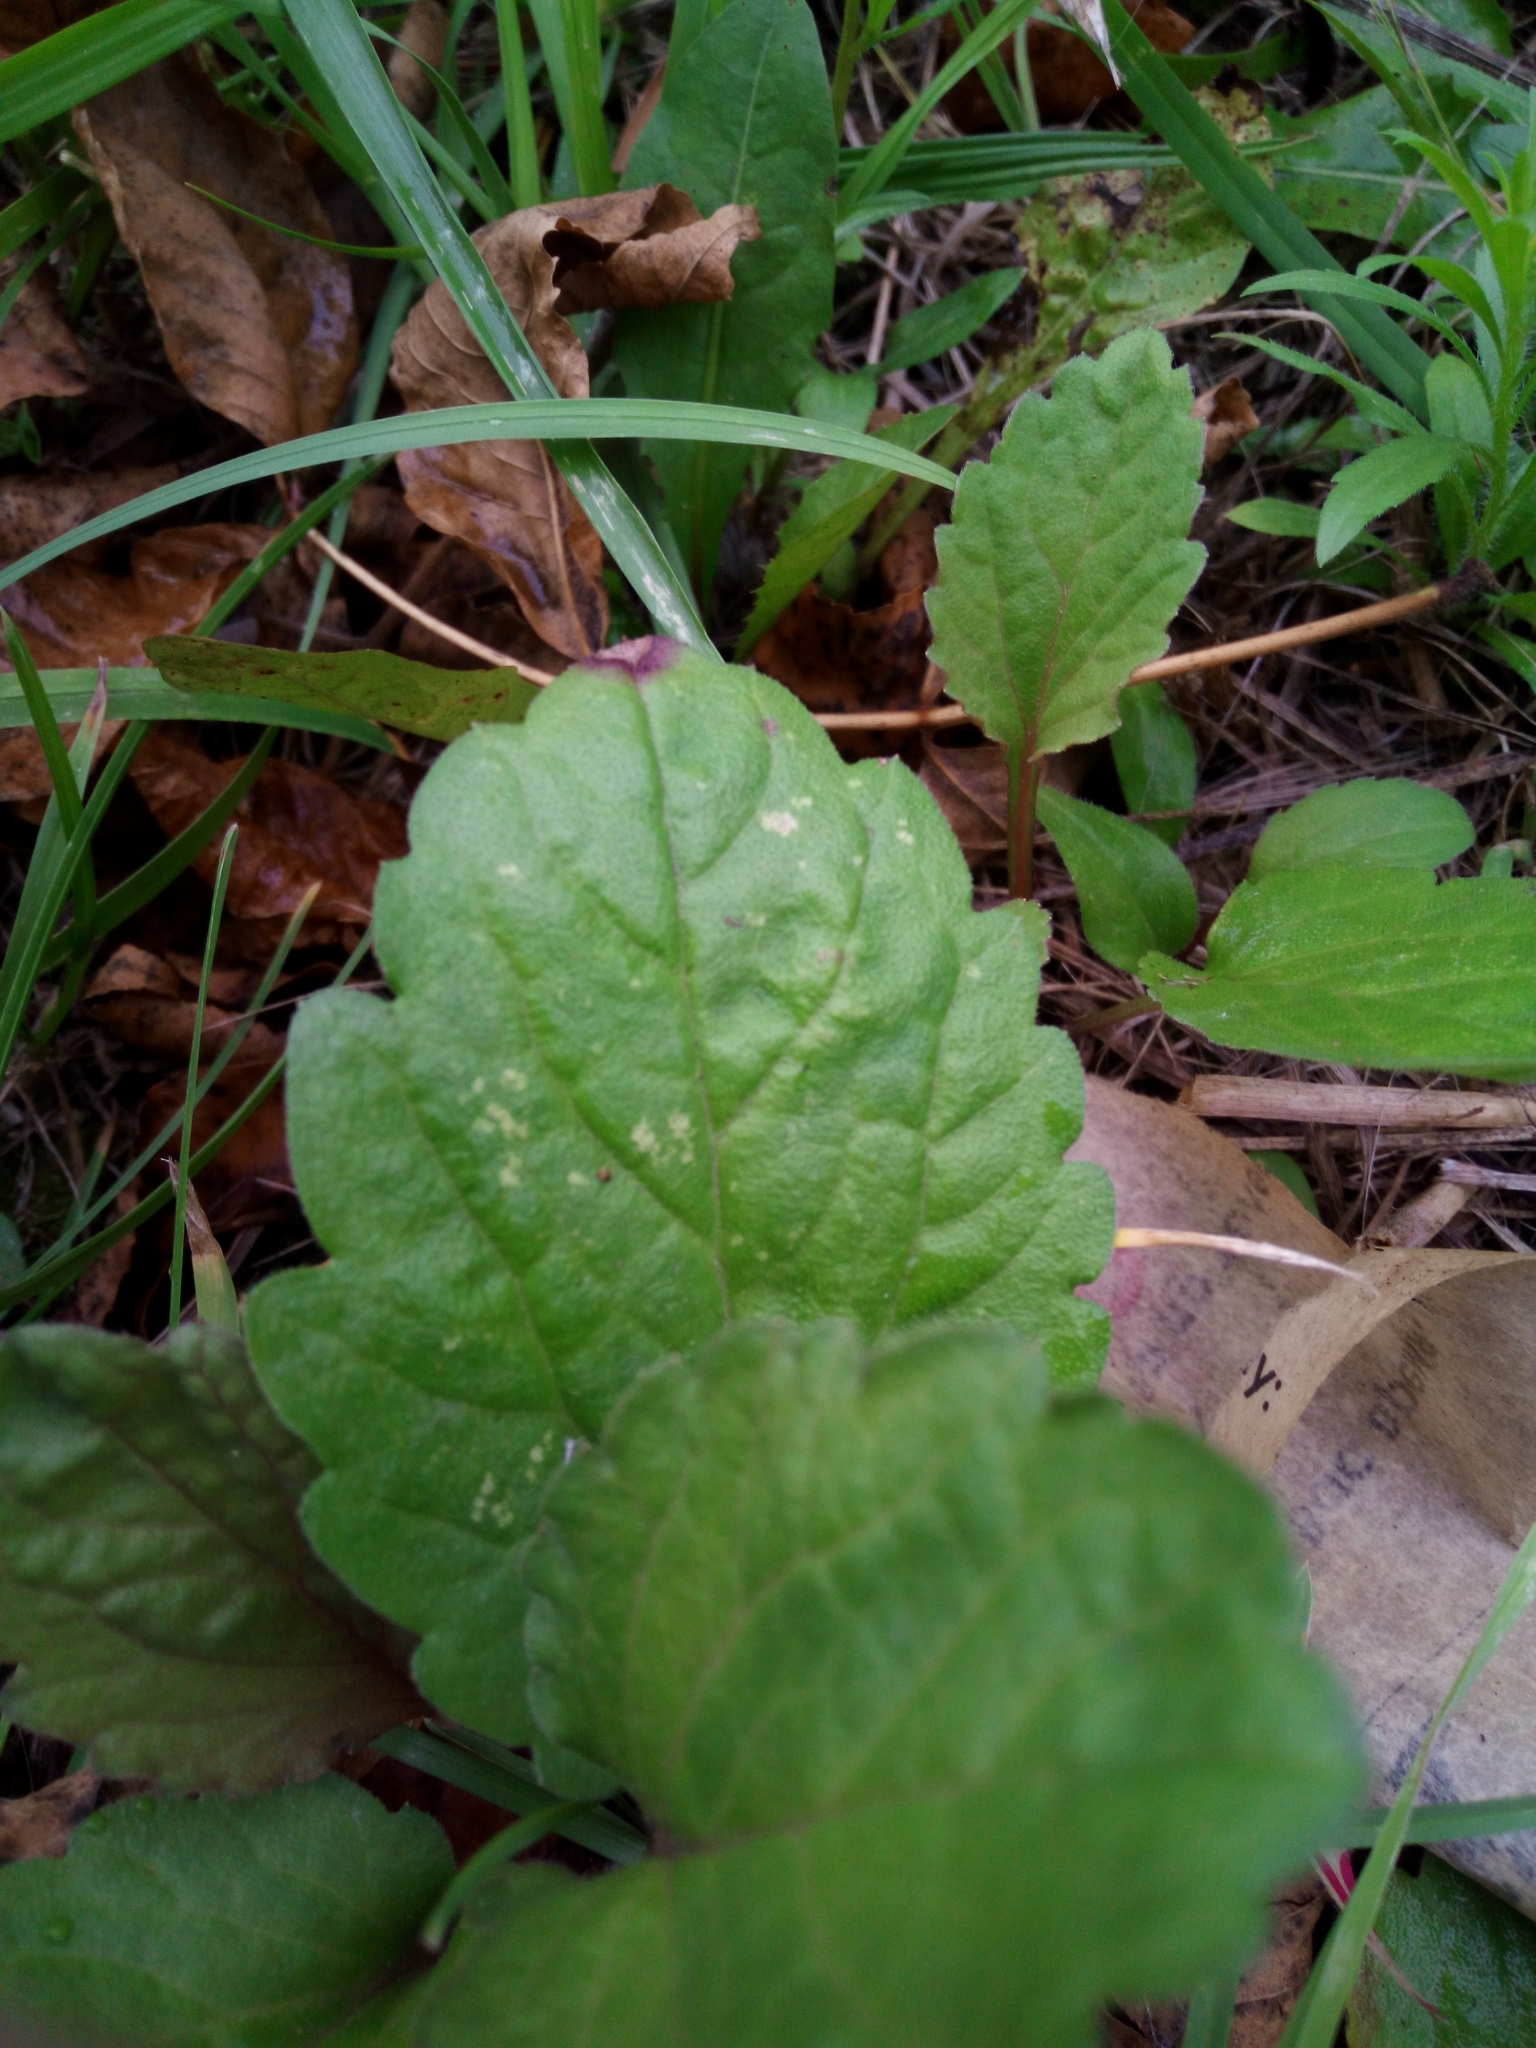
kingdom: Plantae
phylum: Tracheophyta
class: Magnoliopsida
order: Asterales
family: Asteraceae
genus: Erigeron
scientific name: Erigeron annuus
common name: Tall fleabane
